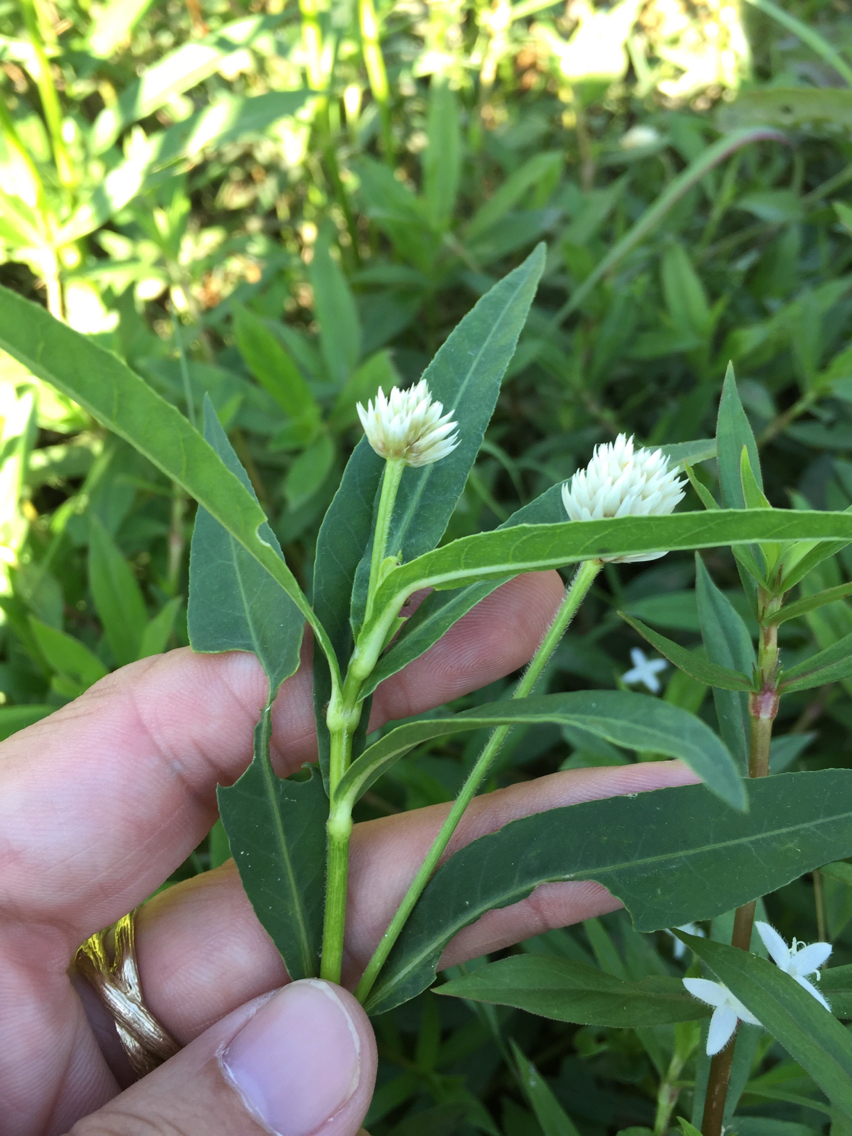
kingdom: Plantae
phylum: Tracheophyta
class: Magnoliopsida
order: Caryophyllales
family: Amaranthaceae
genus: Alternanthera
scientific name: Alternanthera philoxeroides
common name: Alligatorweed
